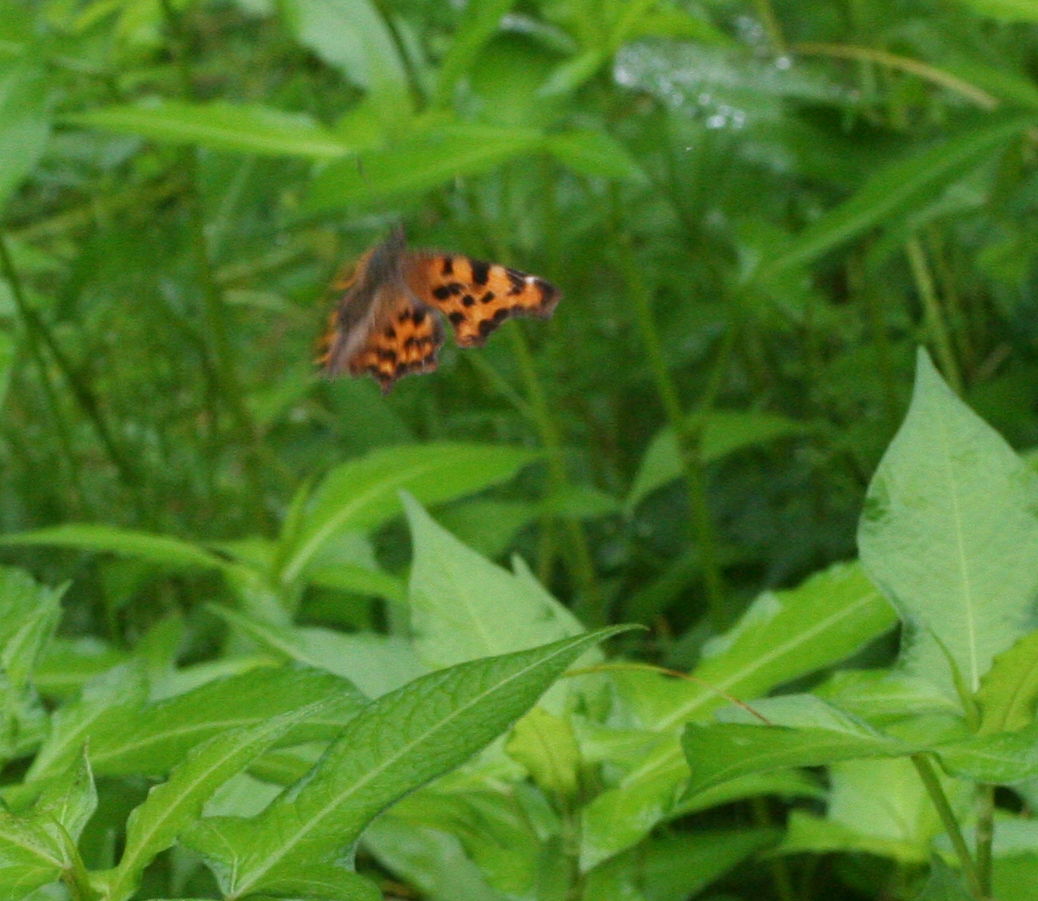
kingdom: Animalia
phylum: Arthropoda
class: Insecta
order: Lepidoptera
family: Nymphalidae
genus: Polygonia
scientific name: Polygonia c-album
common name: Comma
